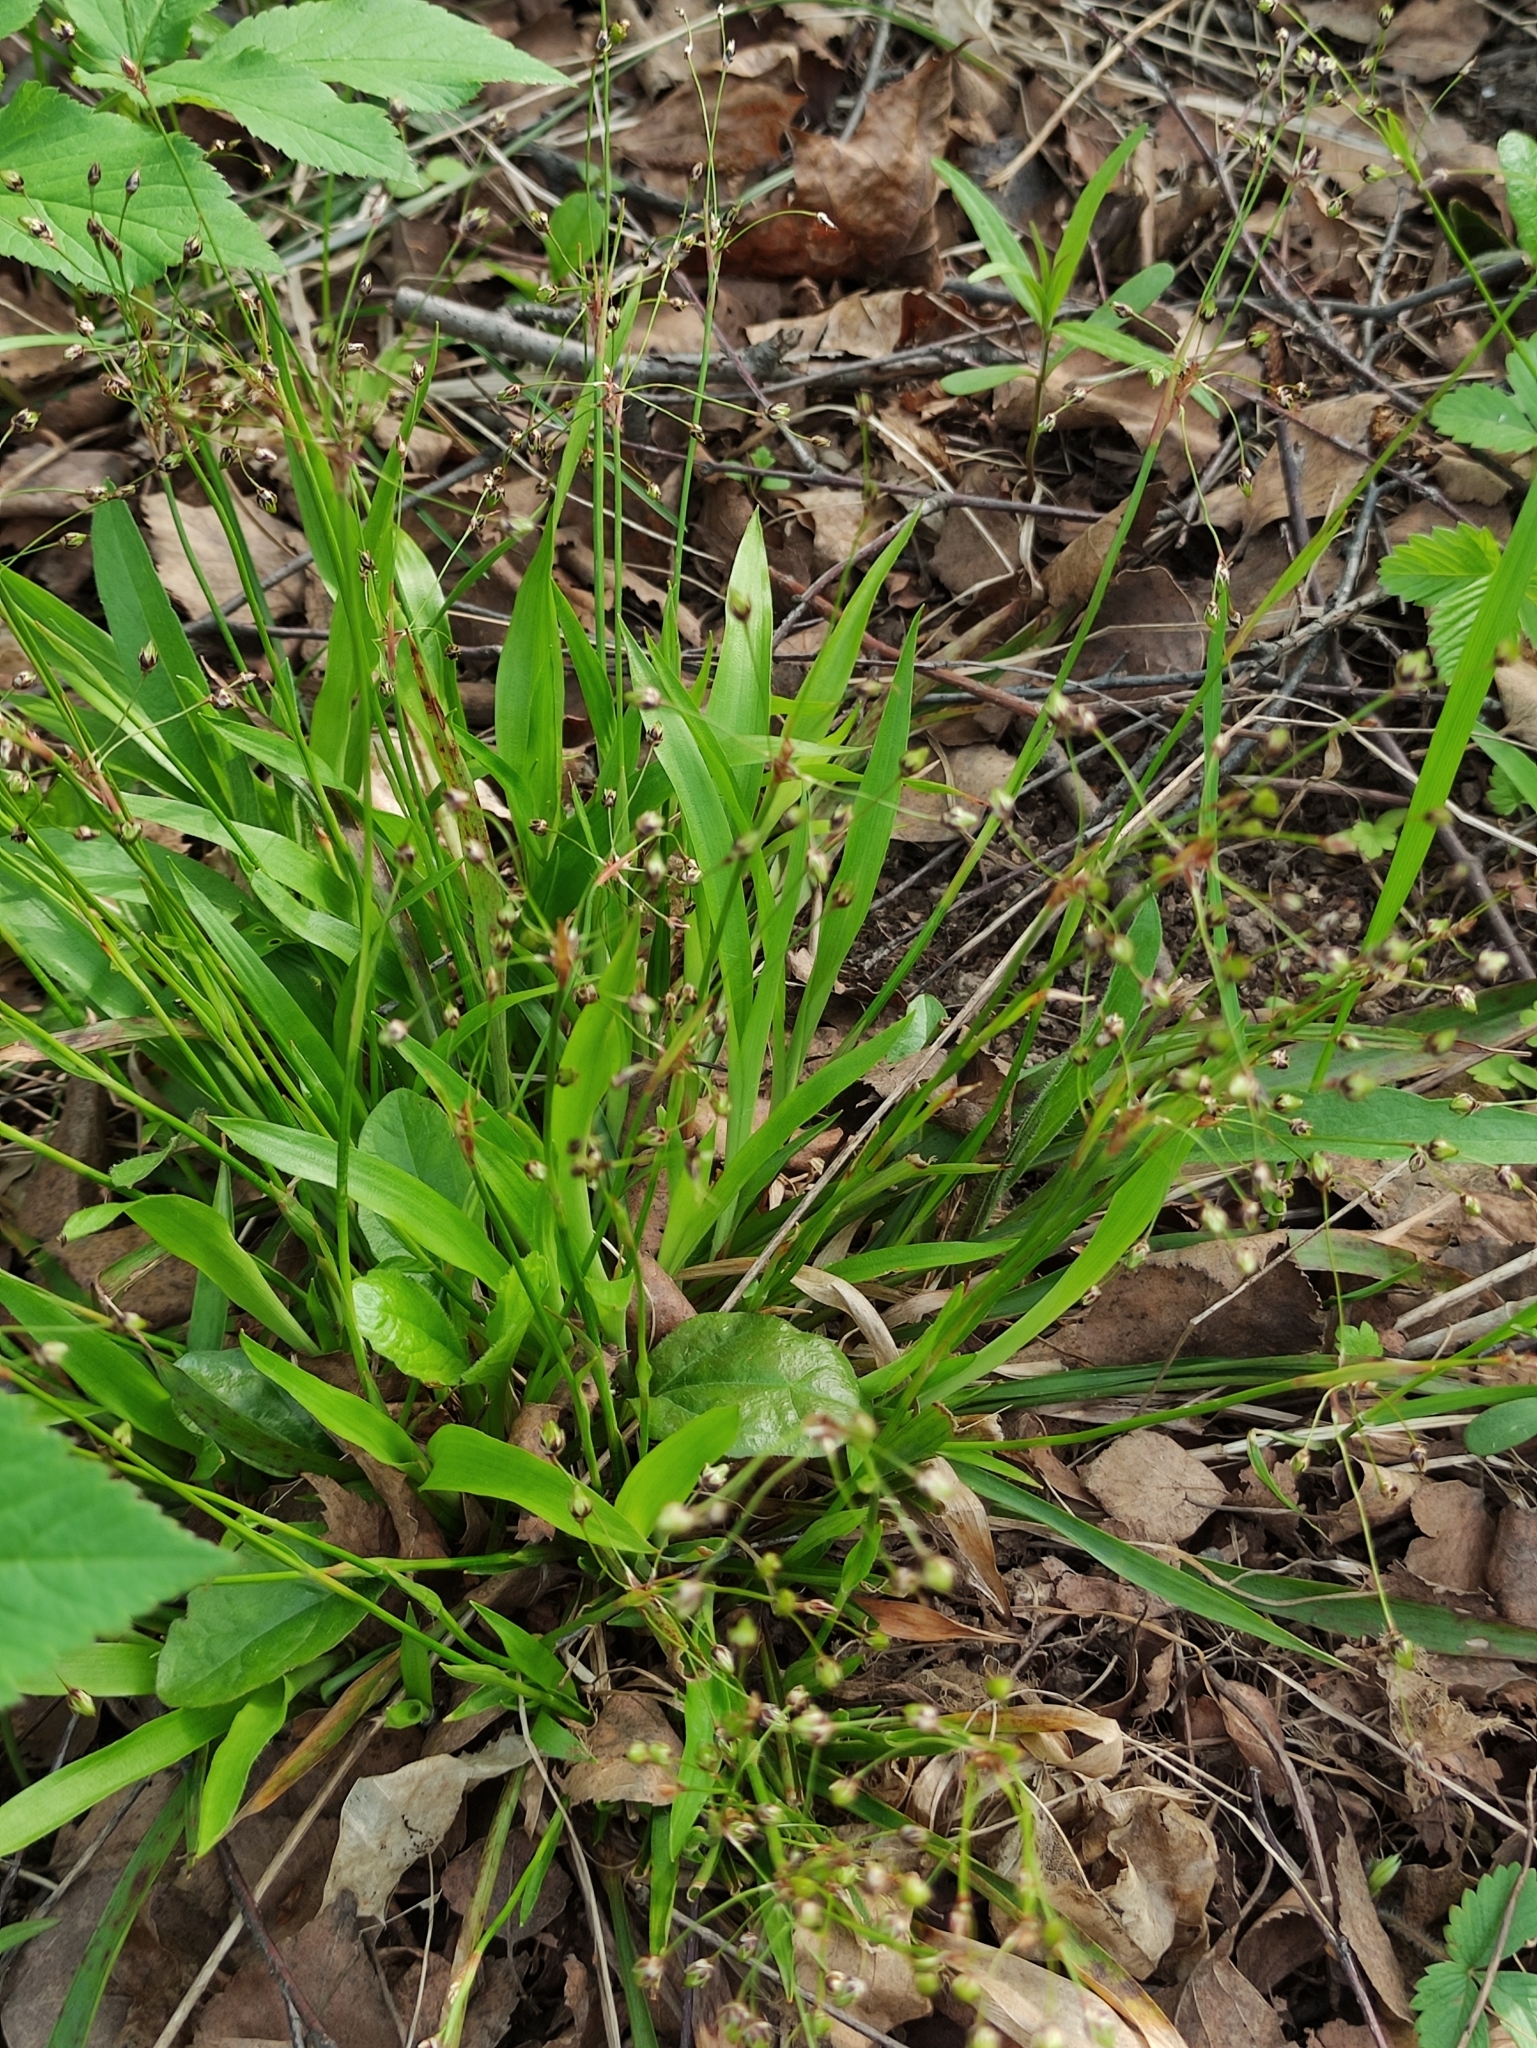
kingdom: Plantae
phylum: Tracheophyta
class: Liliopsida
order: Poales
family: Juncaceae
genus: Luzula
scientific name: Luzula pilosa
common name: Hairy wood-rush
